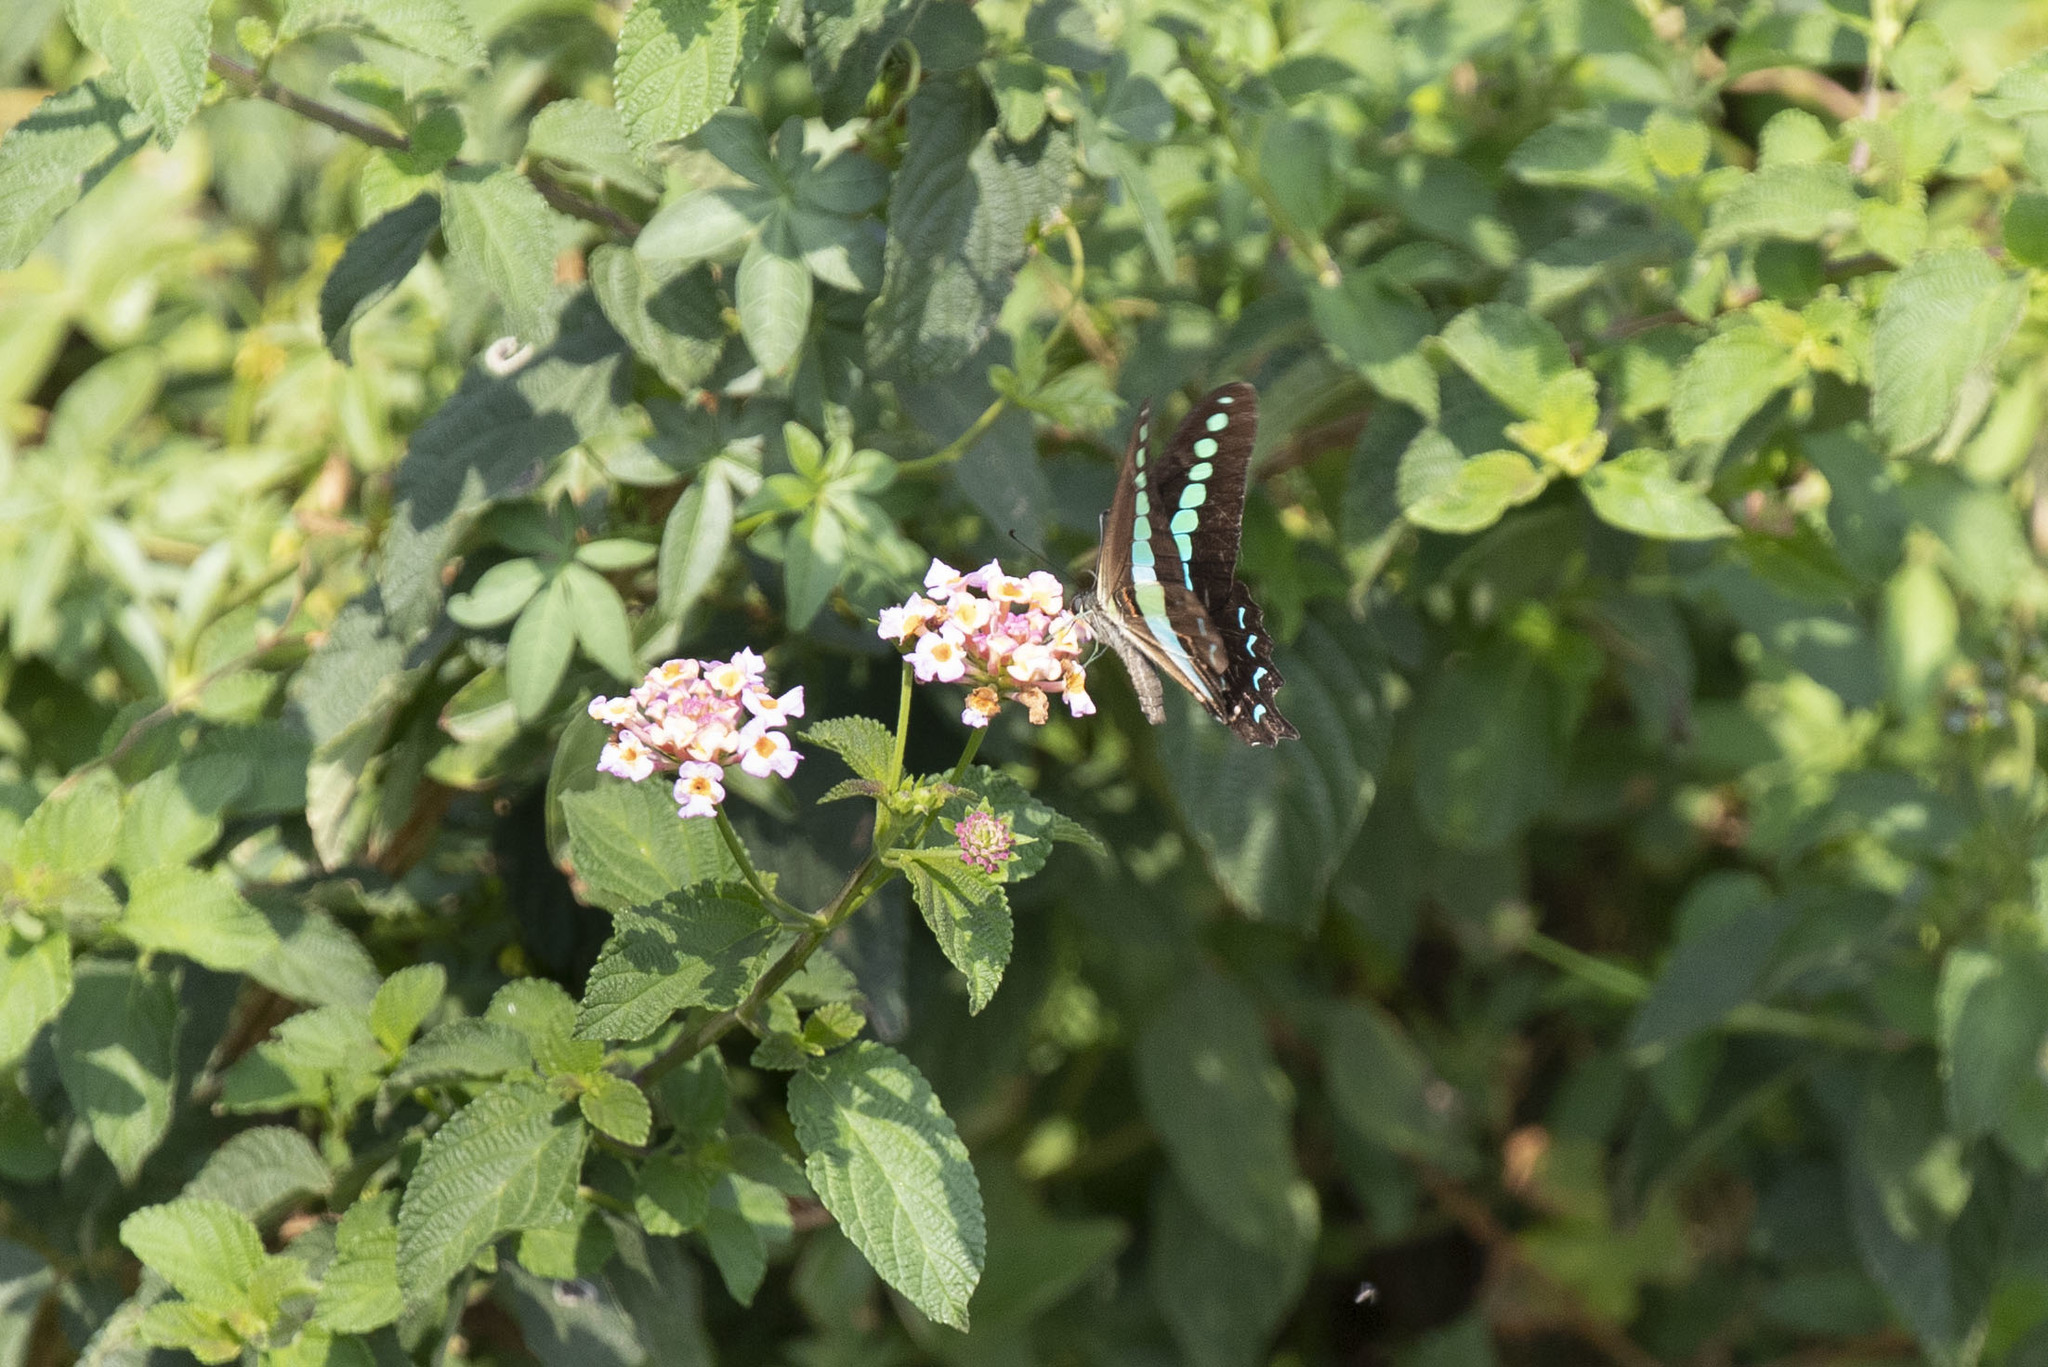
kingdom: Animalia
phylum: Arthropoda
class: Insecta
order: Lepidoptera
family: Papilionidae
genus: Graphium
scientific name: Graphium
